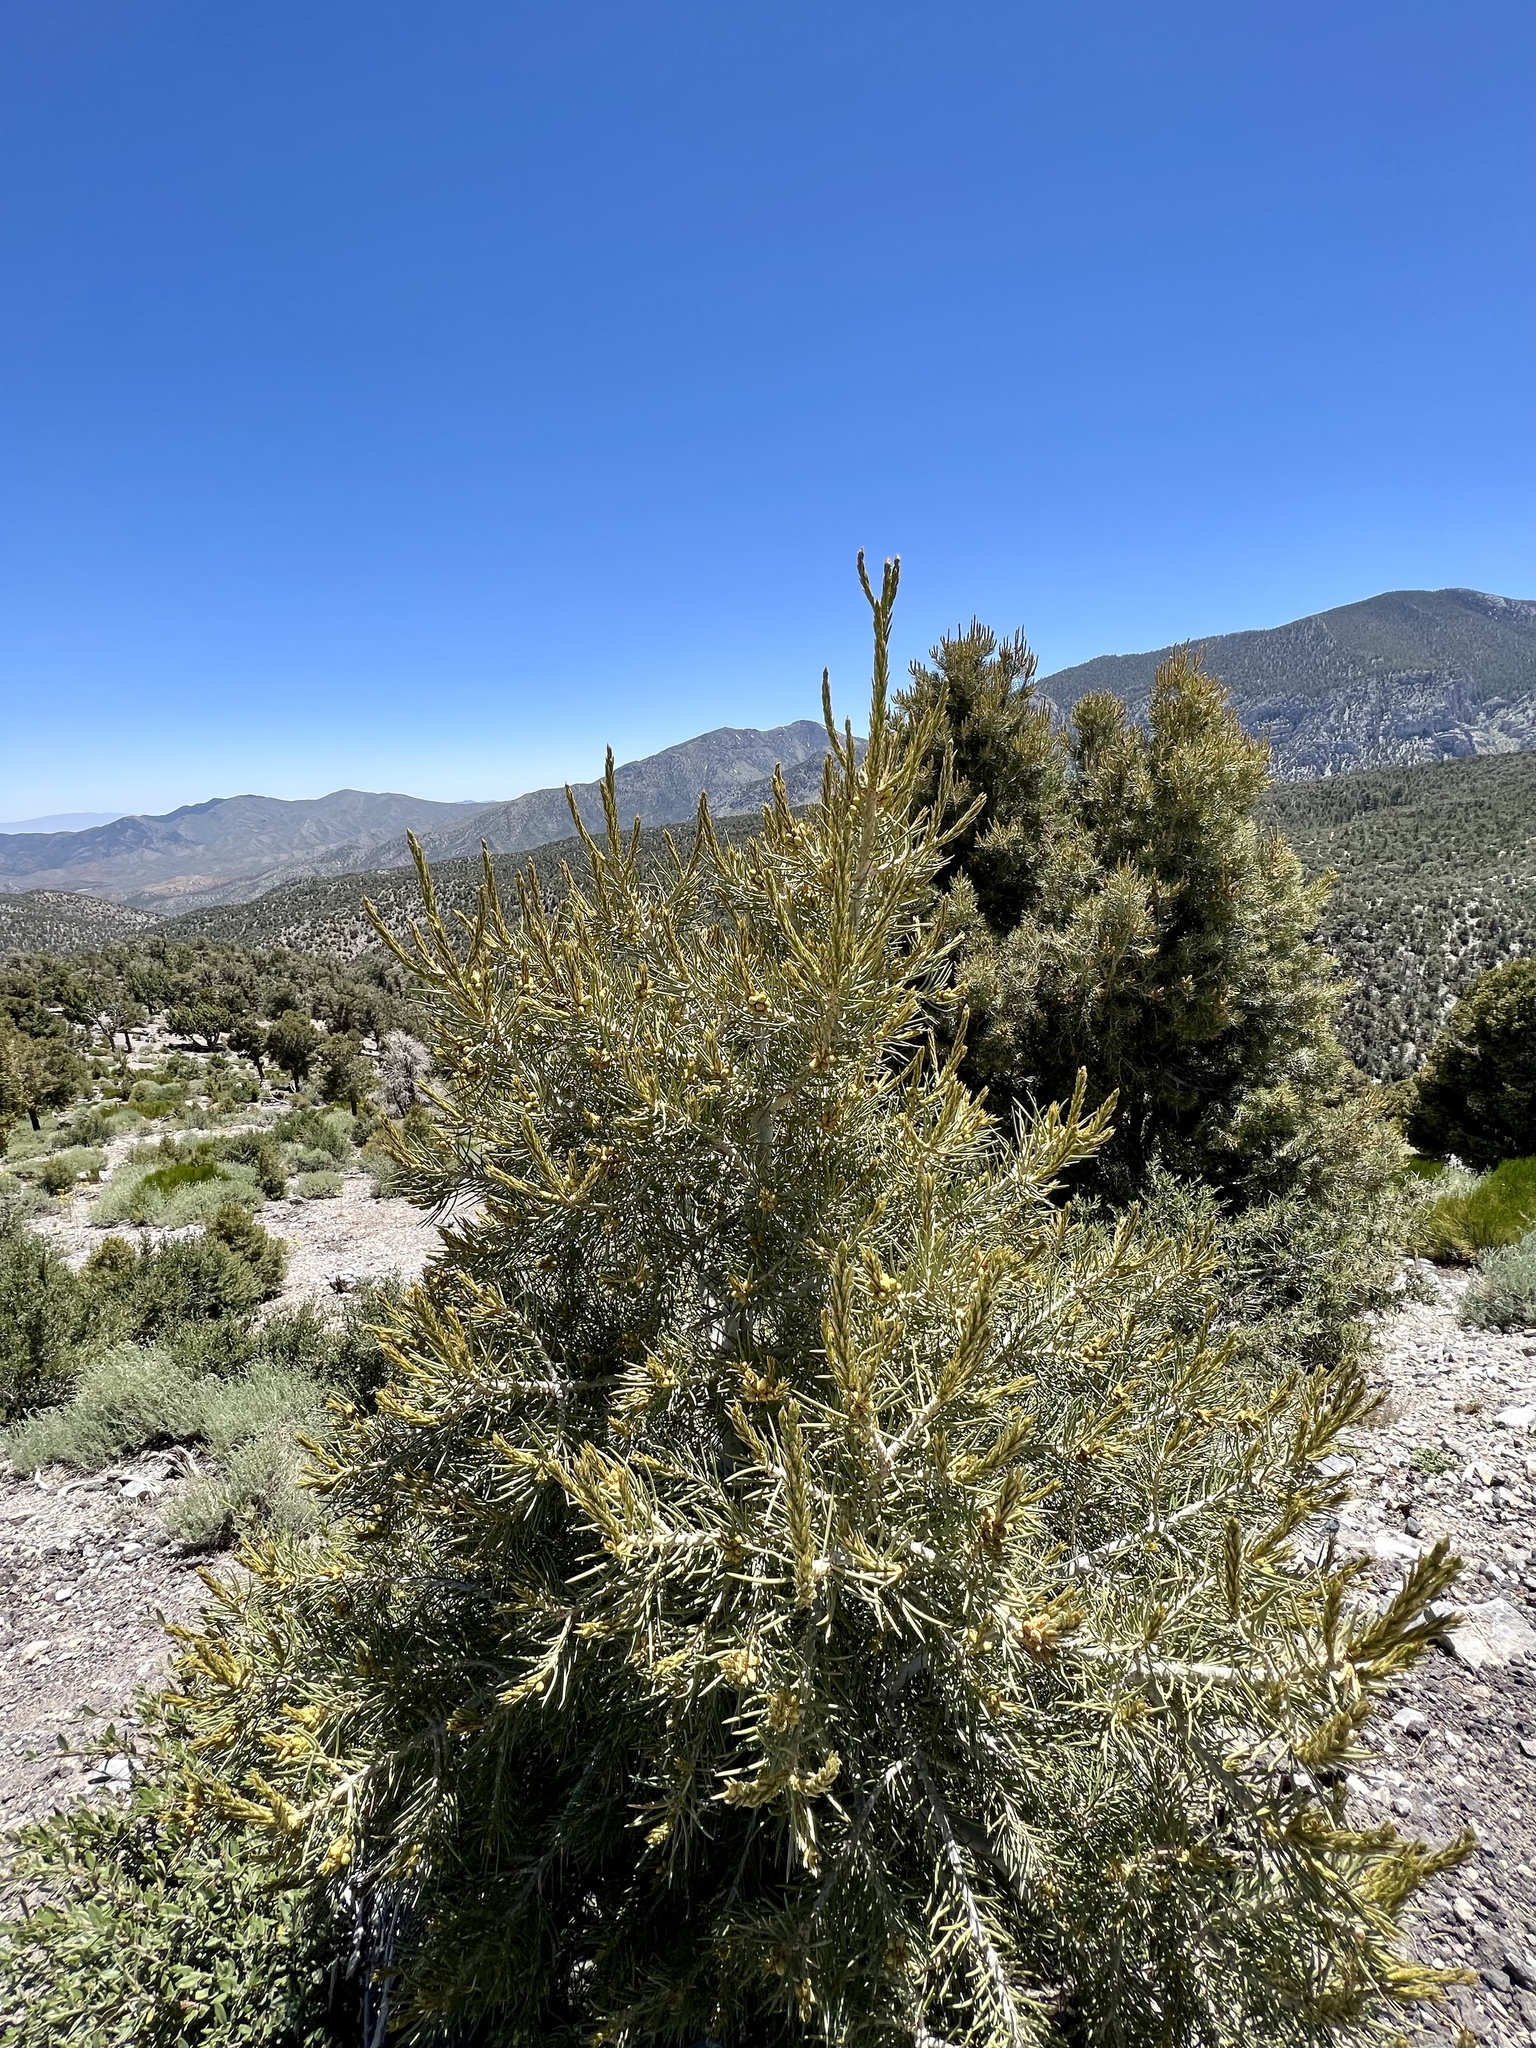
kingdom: Plantae
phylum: Tracheophyta
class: Pinopsida
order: Pinales
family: Pinaceae
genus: Pinus
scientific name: Pinus monophylla
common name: One-leaved nut pine
